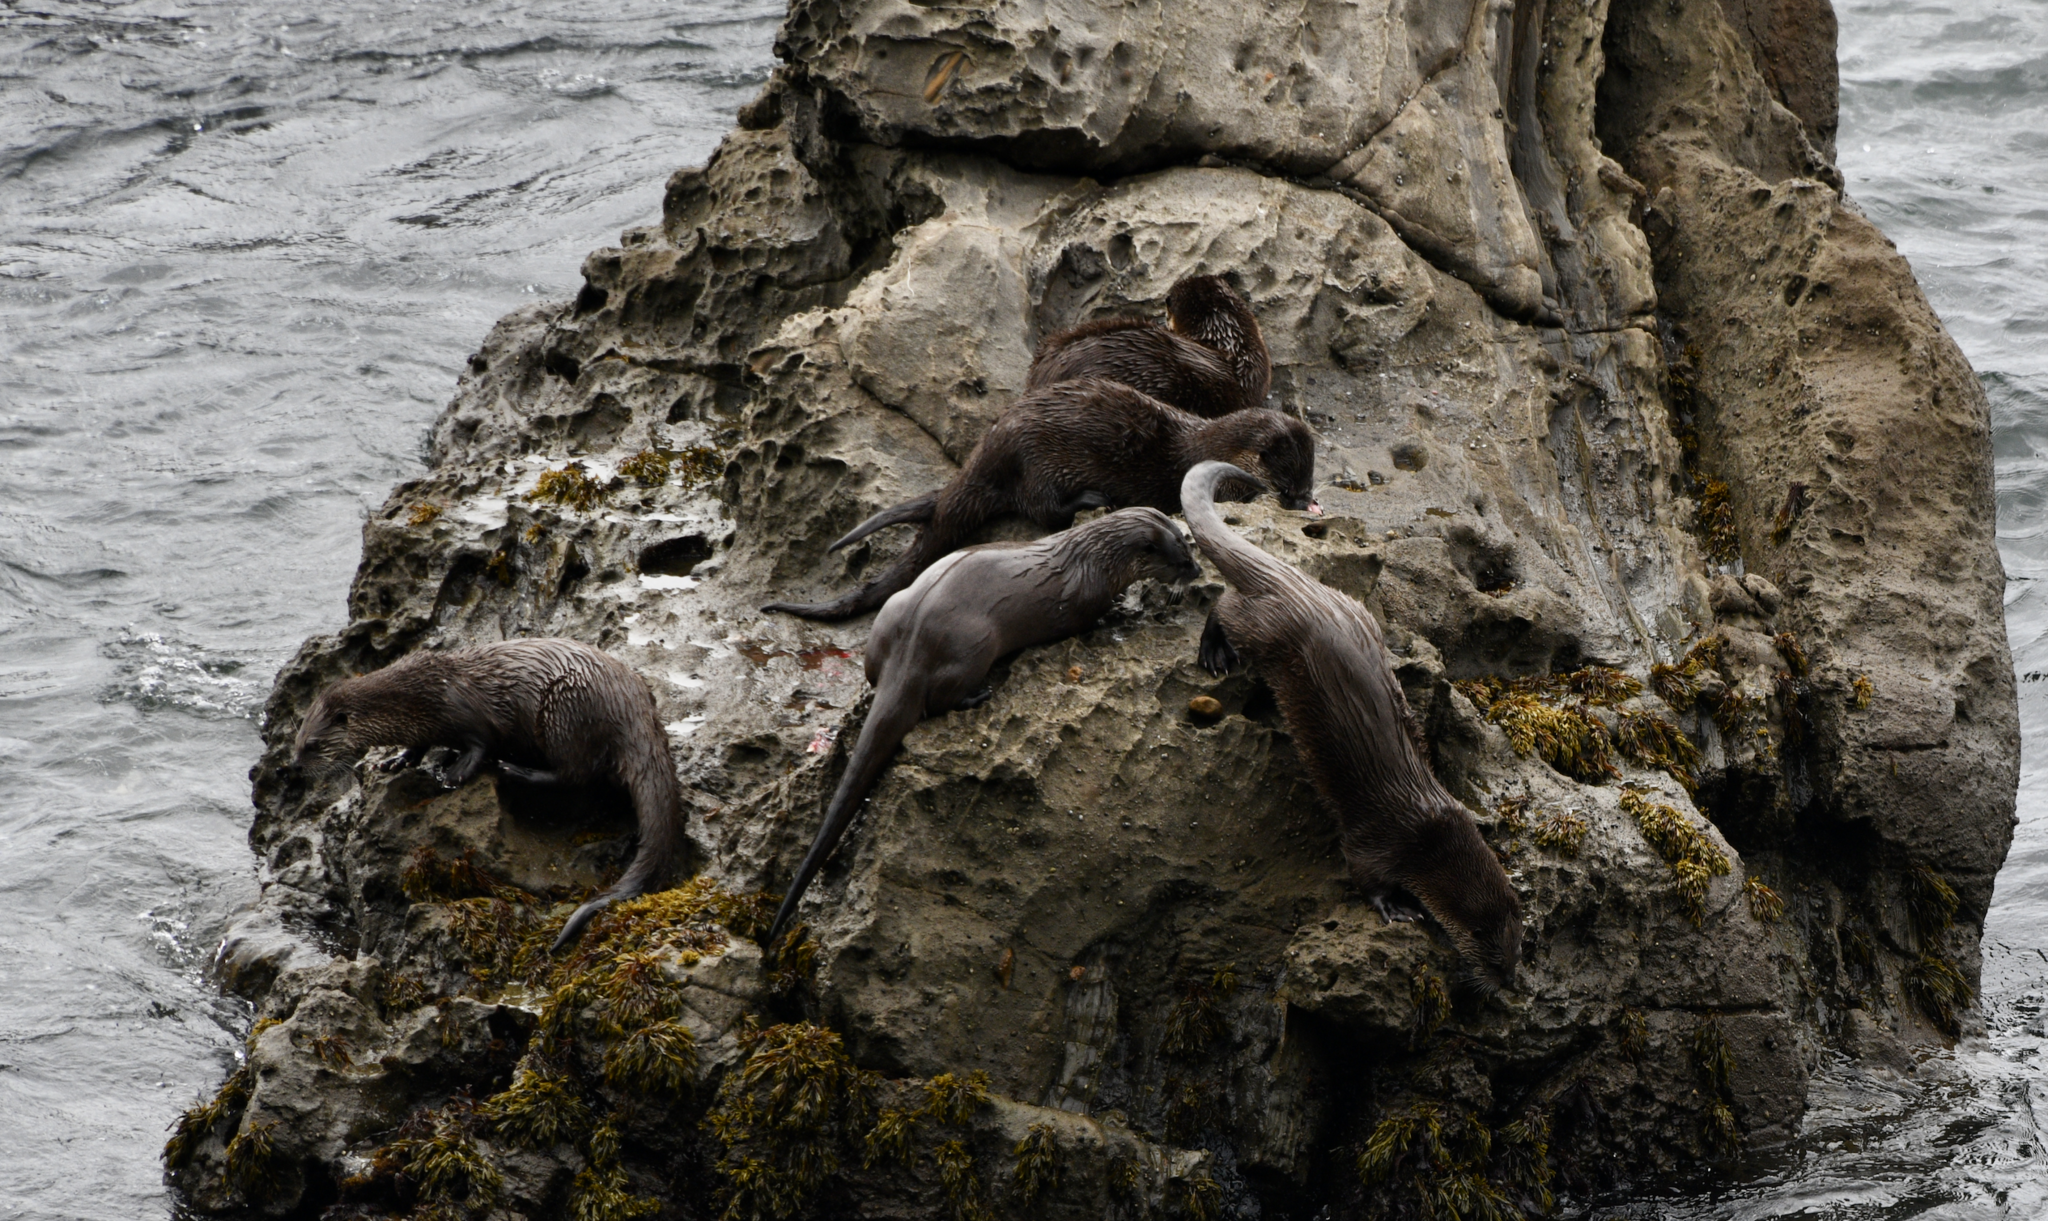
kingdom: Animalia
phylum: Chordata
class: Mammalia
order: Carnivora
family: Mustelidae
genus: Lontra
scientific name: Lontra canadensis
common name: North american river otter
